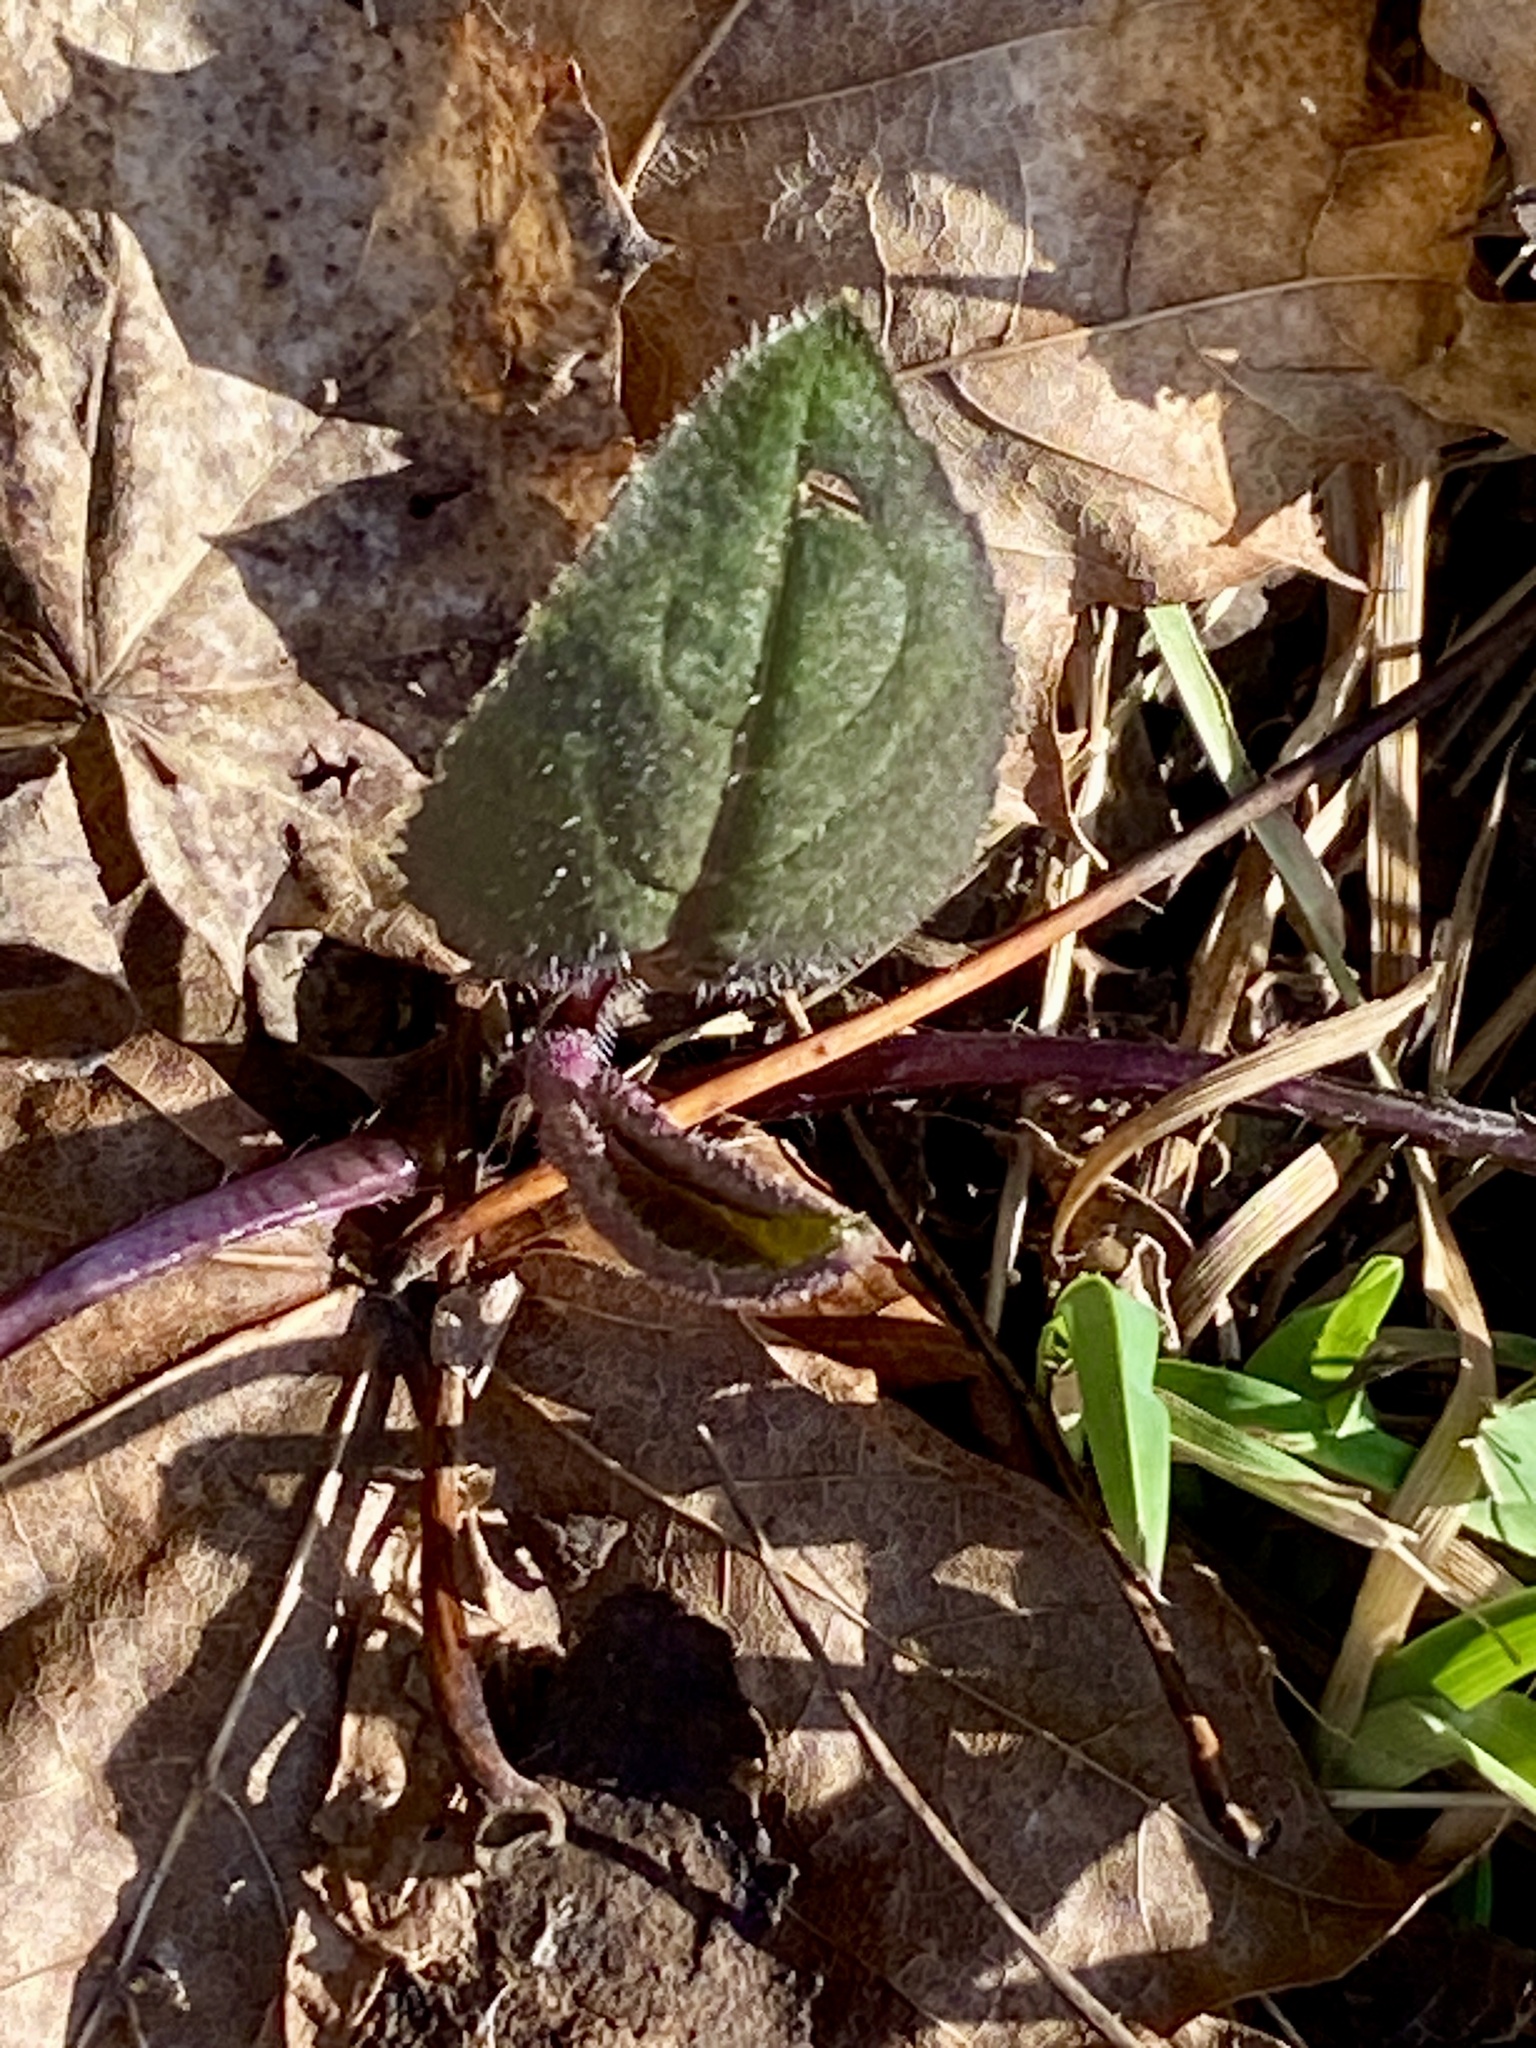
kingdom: Plantae
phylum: Tracheophyta
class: Magnoliopsida
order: Brassicales
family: Brassicaceae
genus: Hesperis
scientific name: Hesperis matronalis
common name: Dame's-violet
